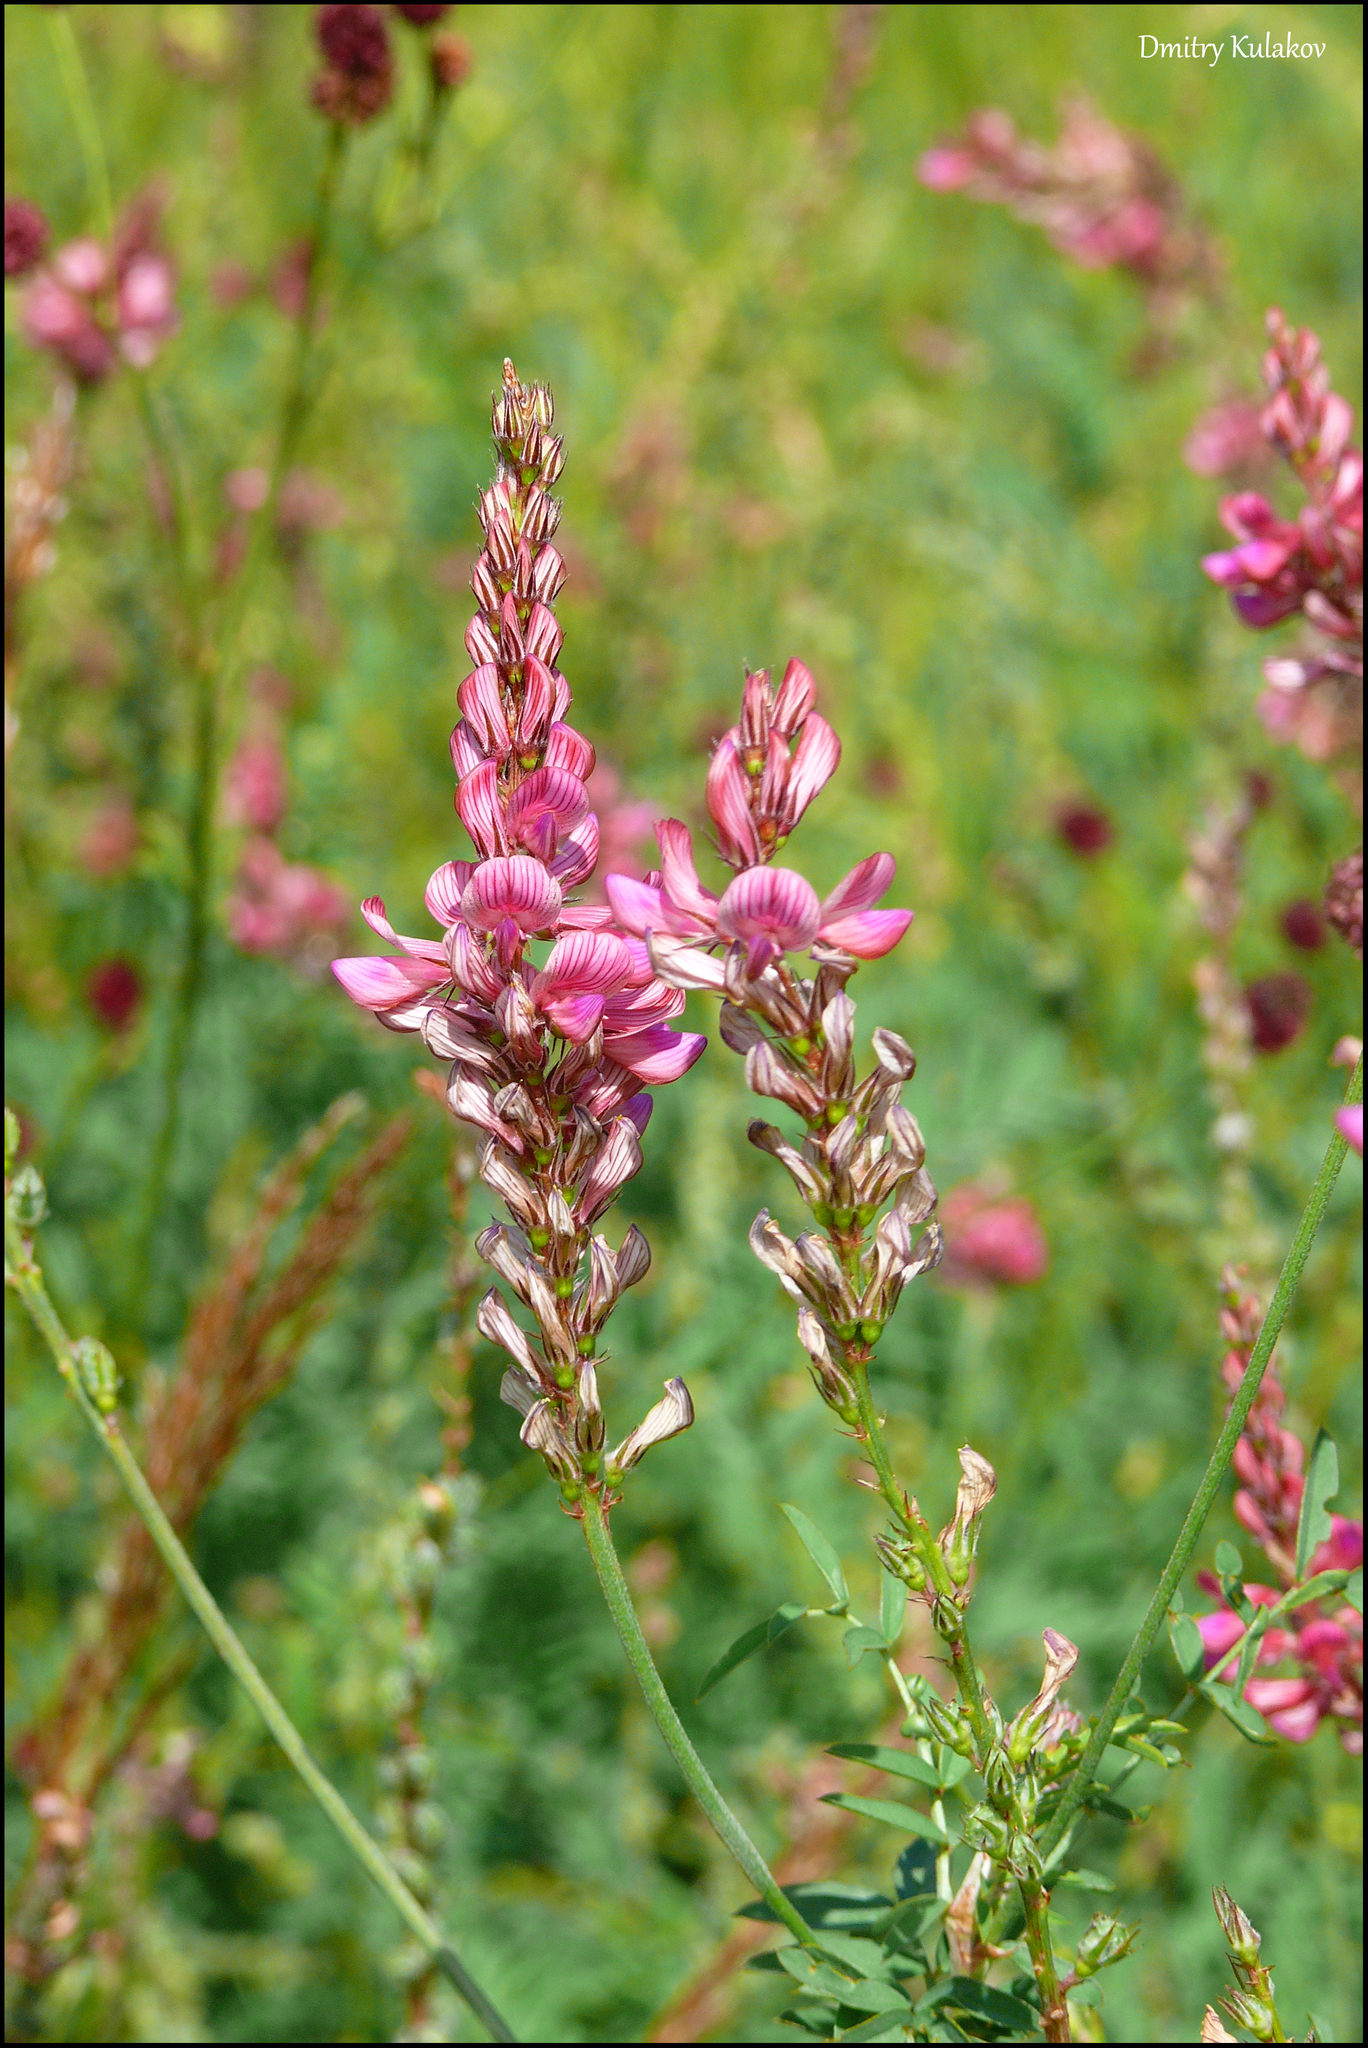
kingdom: Plantae
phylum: Tracheophyta
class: Magnoliopsida
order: Fabales
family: Fabaceae
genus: Onobrychis
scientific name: Onobrychis arenaria
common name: Sand esparcet
